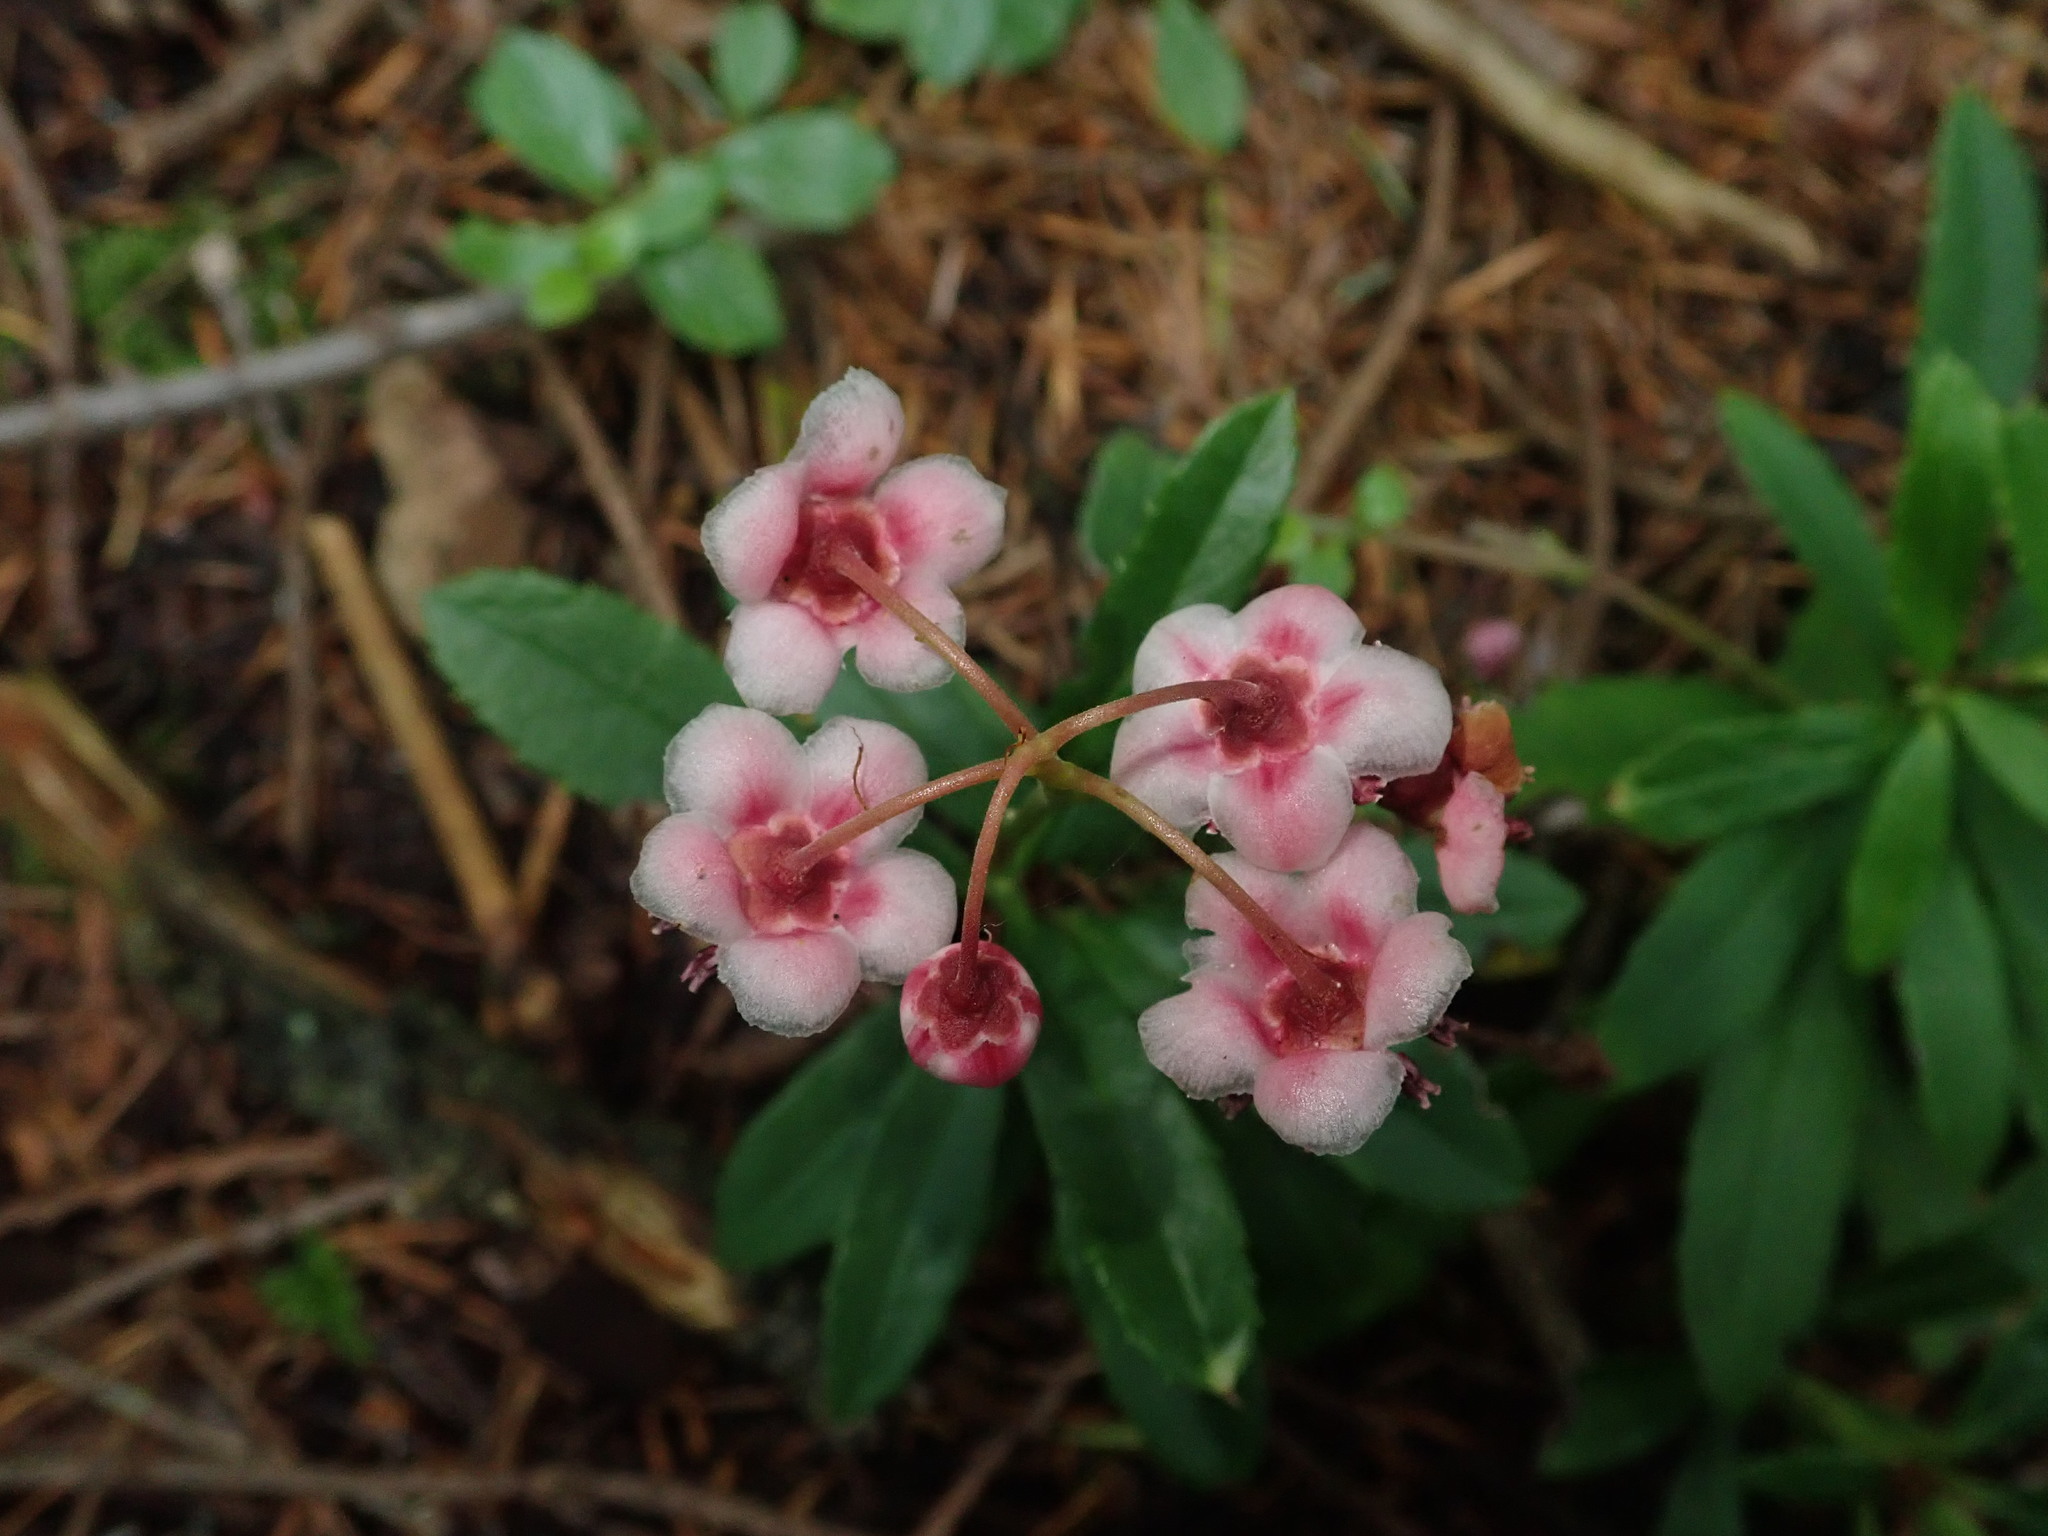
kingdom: Plantae
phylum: Tracheophyta
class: Magnoliopsida
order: Ericales
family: Ericaceae
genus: Chimaphila
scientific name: Chimaphila umbellata
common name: Pipsissewa
